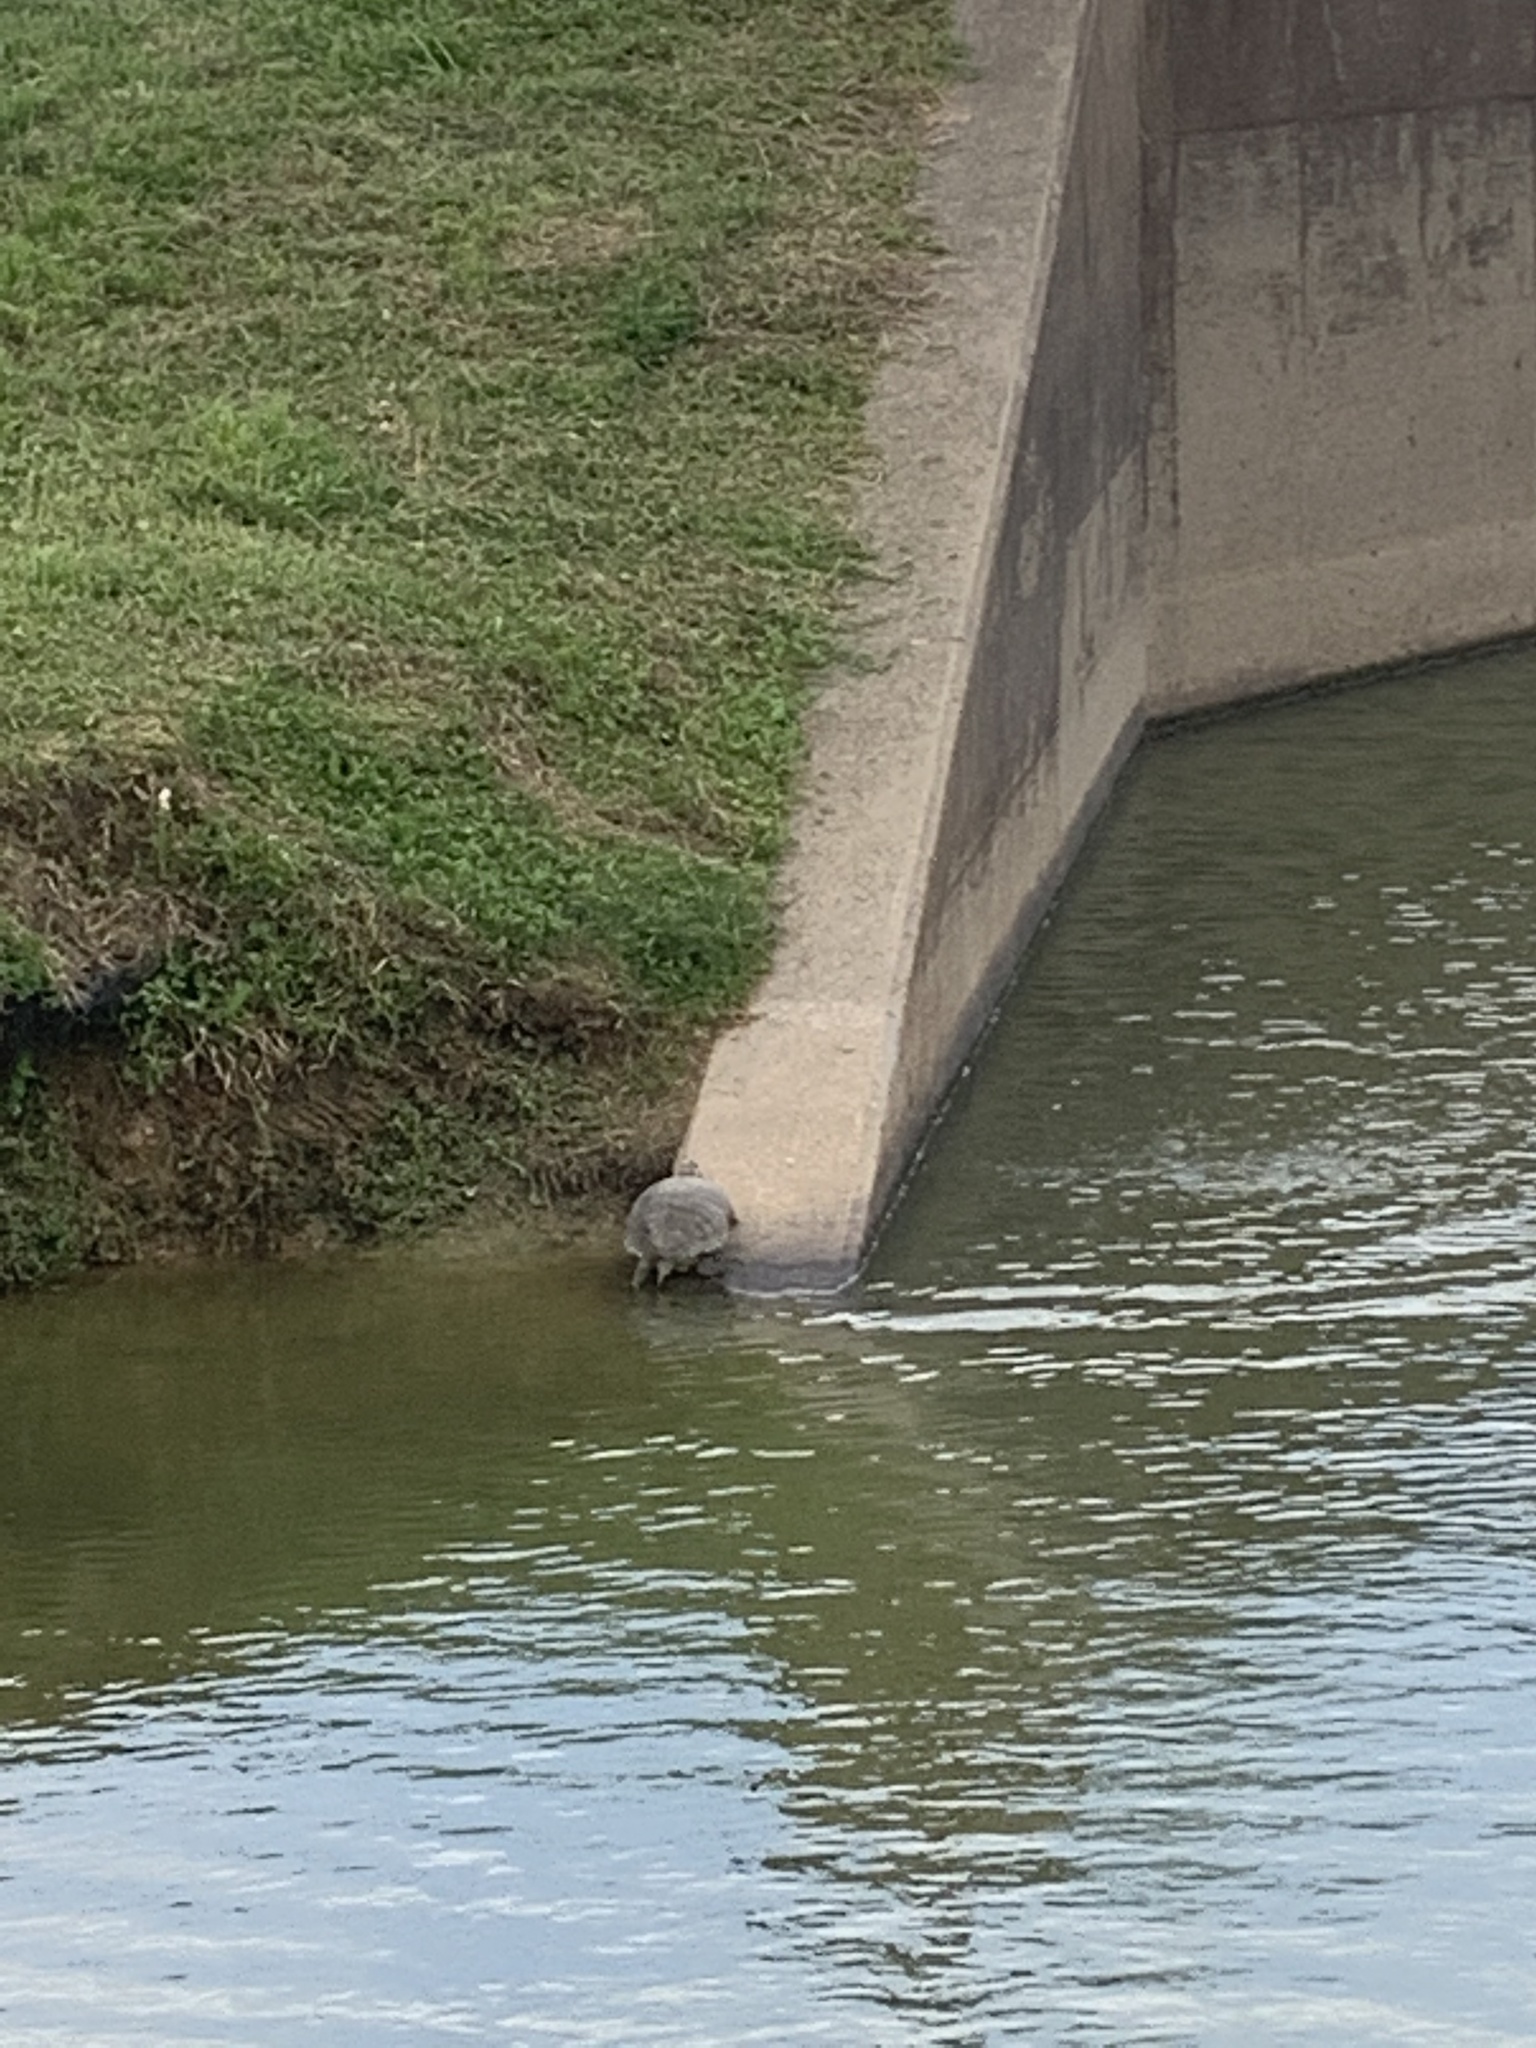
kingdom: Animalia
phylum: Chordata
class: Testudines
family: Emydidae
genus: Trachemys
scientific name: Trachemys scripta
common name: Slider
